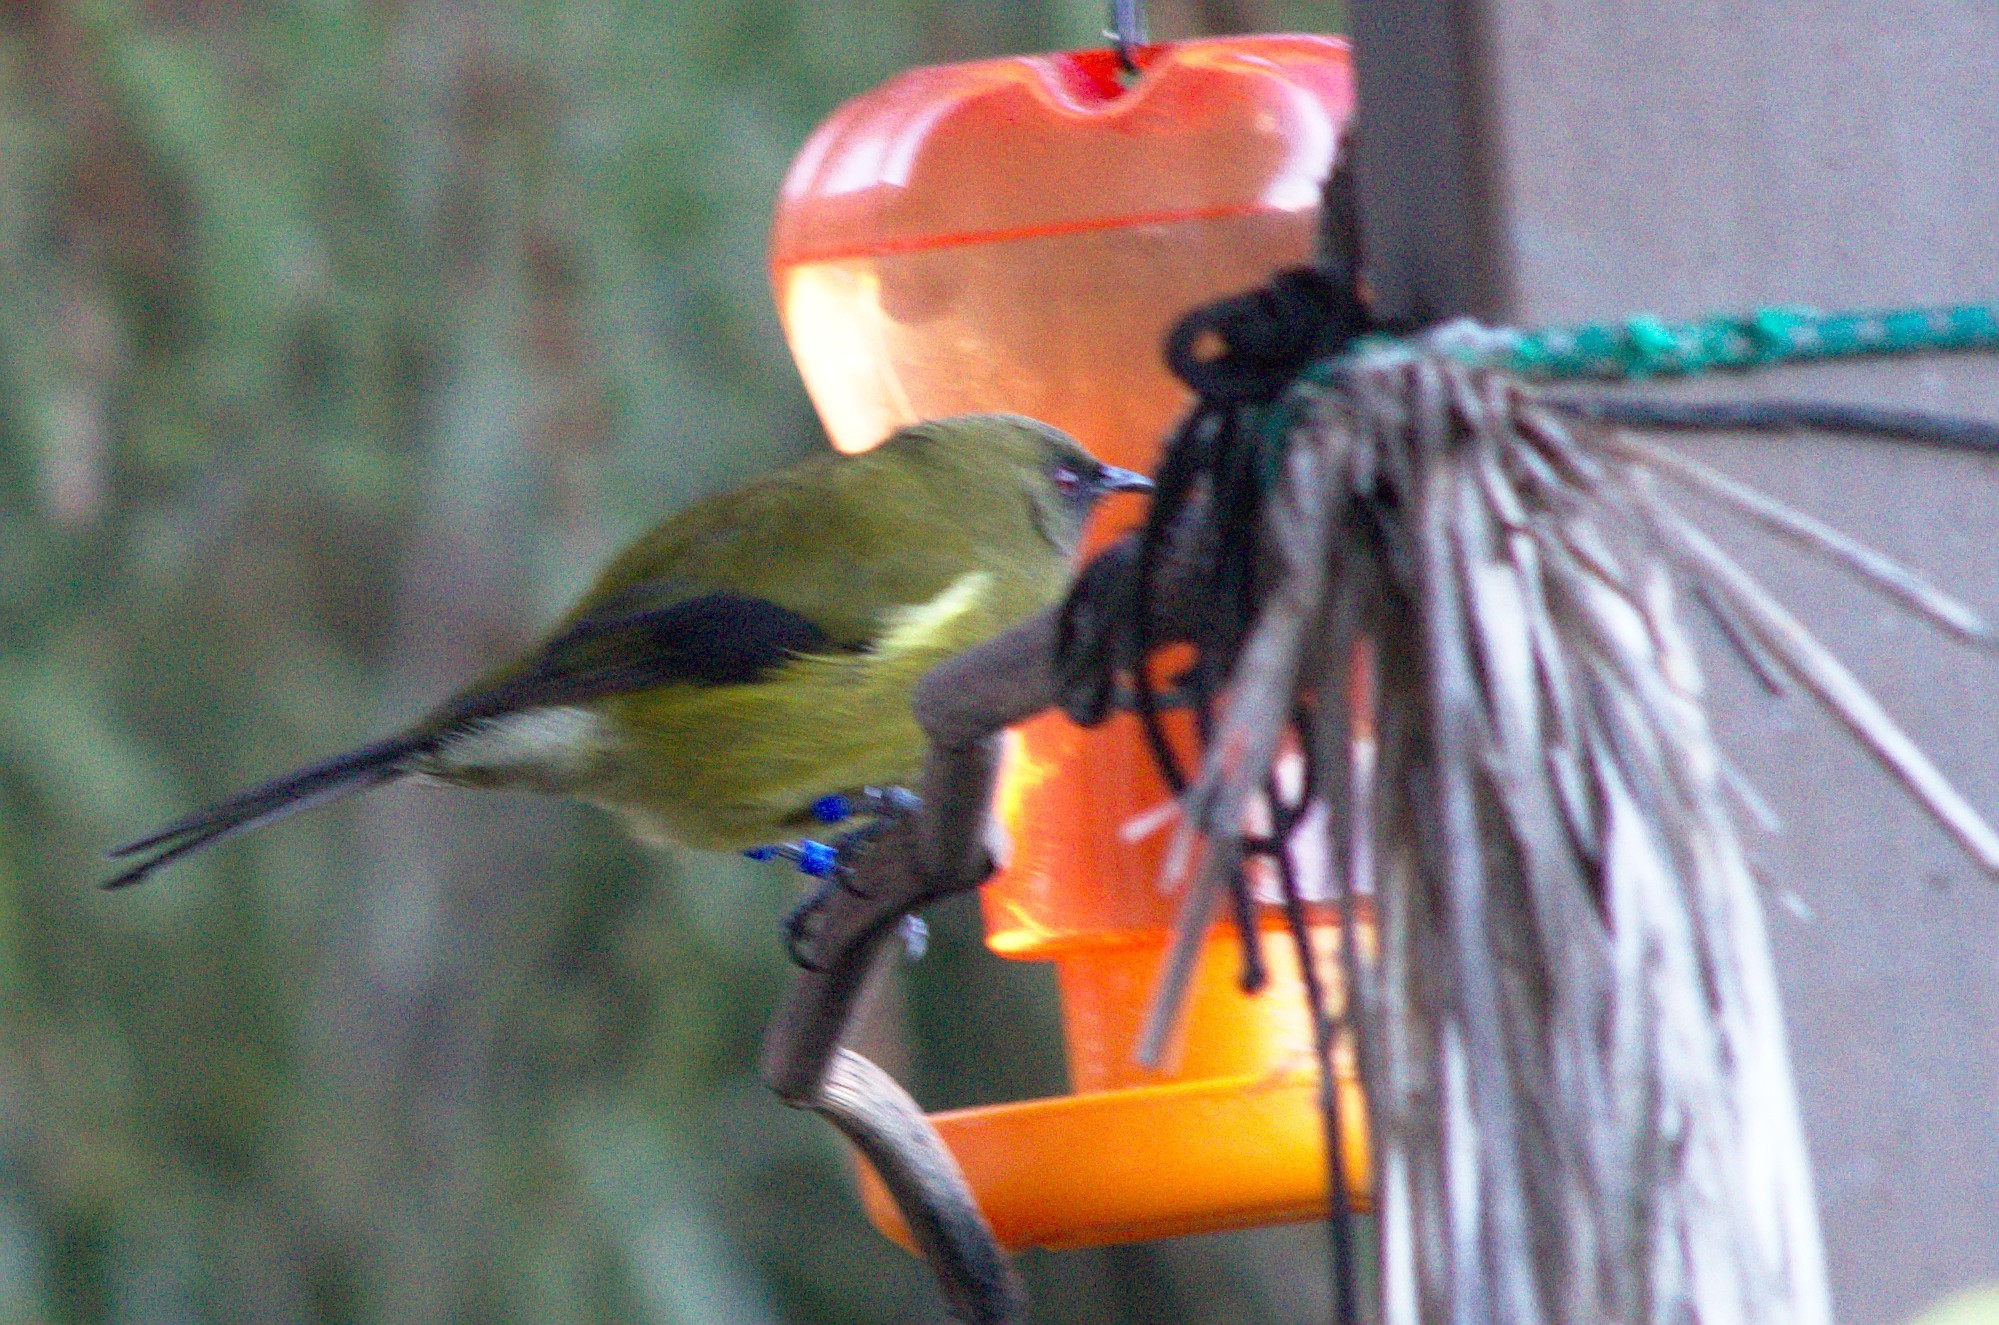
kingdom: Animalia
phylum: Chordata
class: Aves
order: Passeriformes
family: Meliphagidae
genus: Anthornis
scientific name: Anthornis melanura
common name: New zealand bellbird
